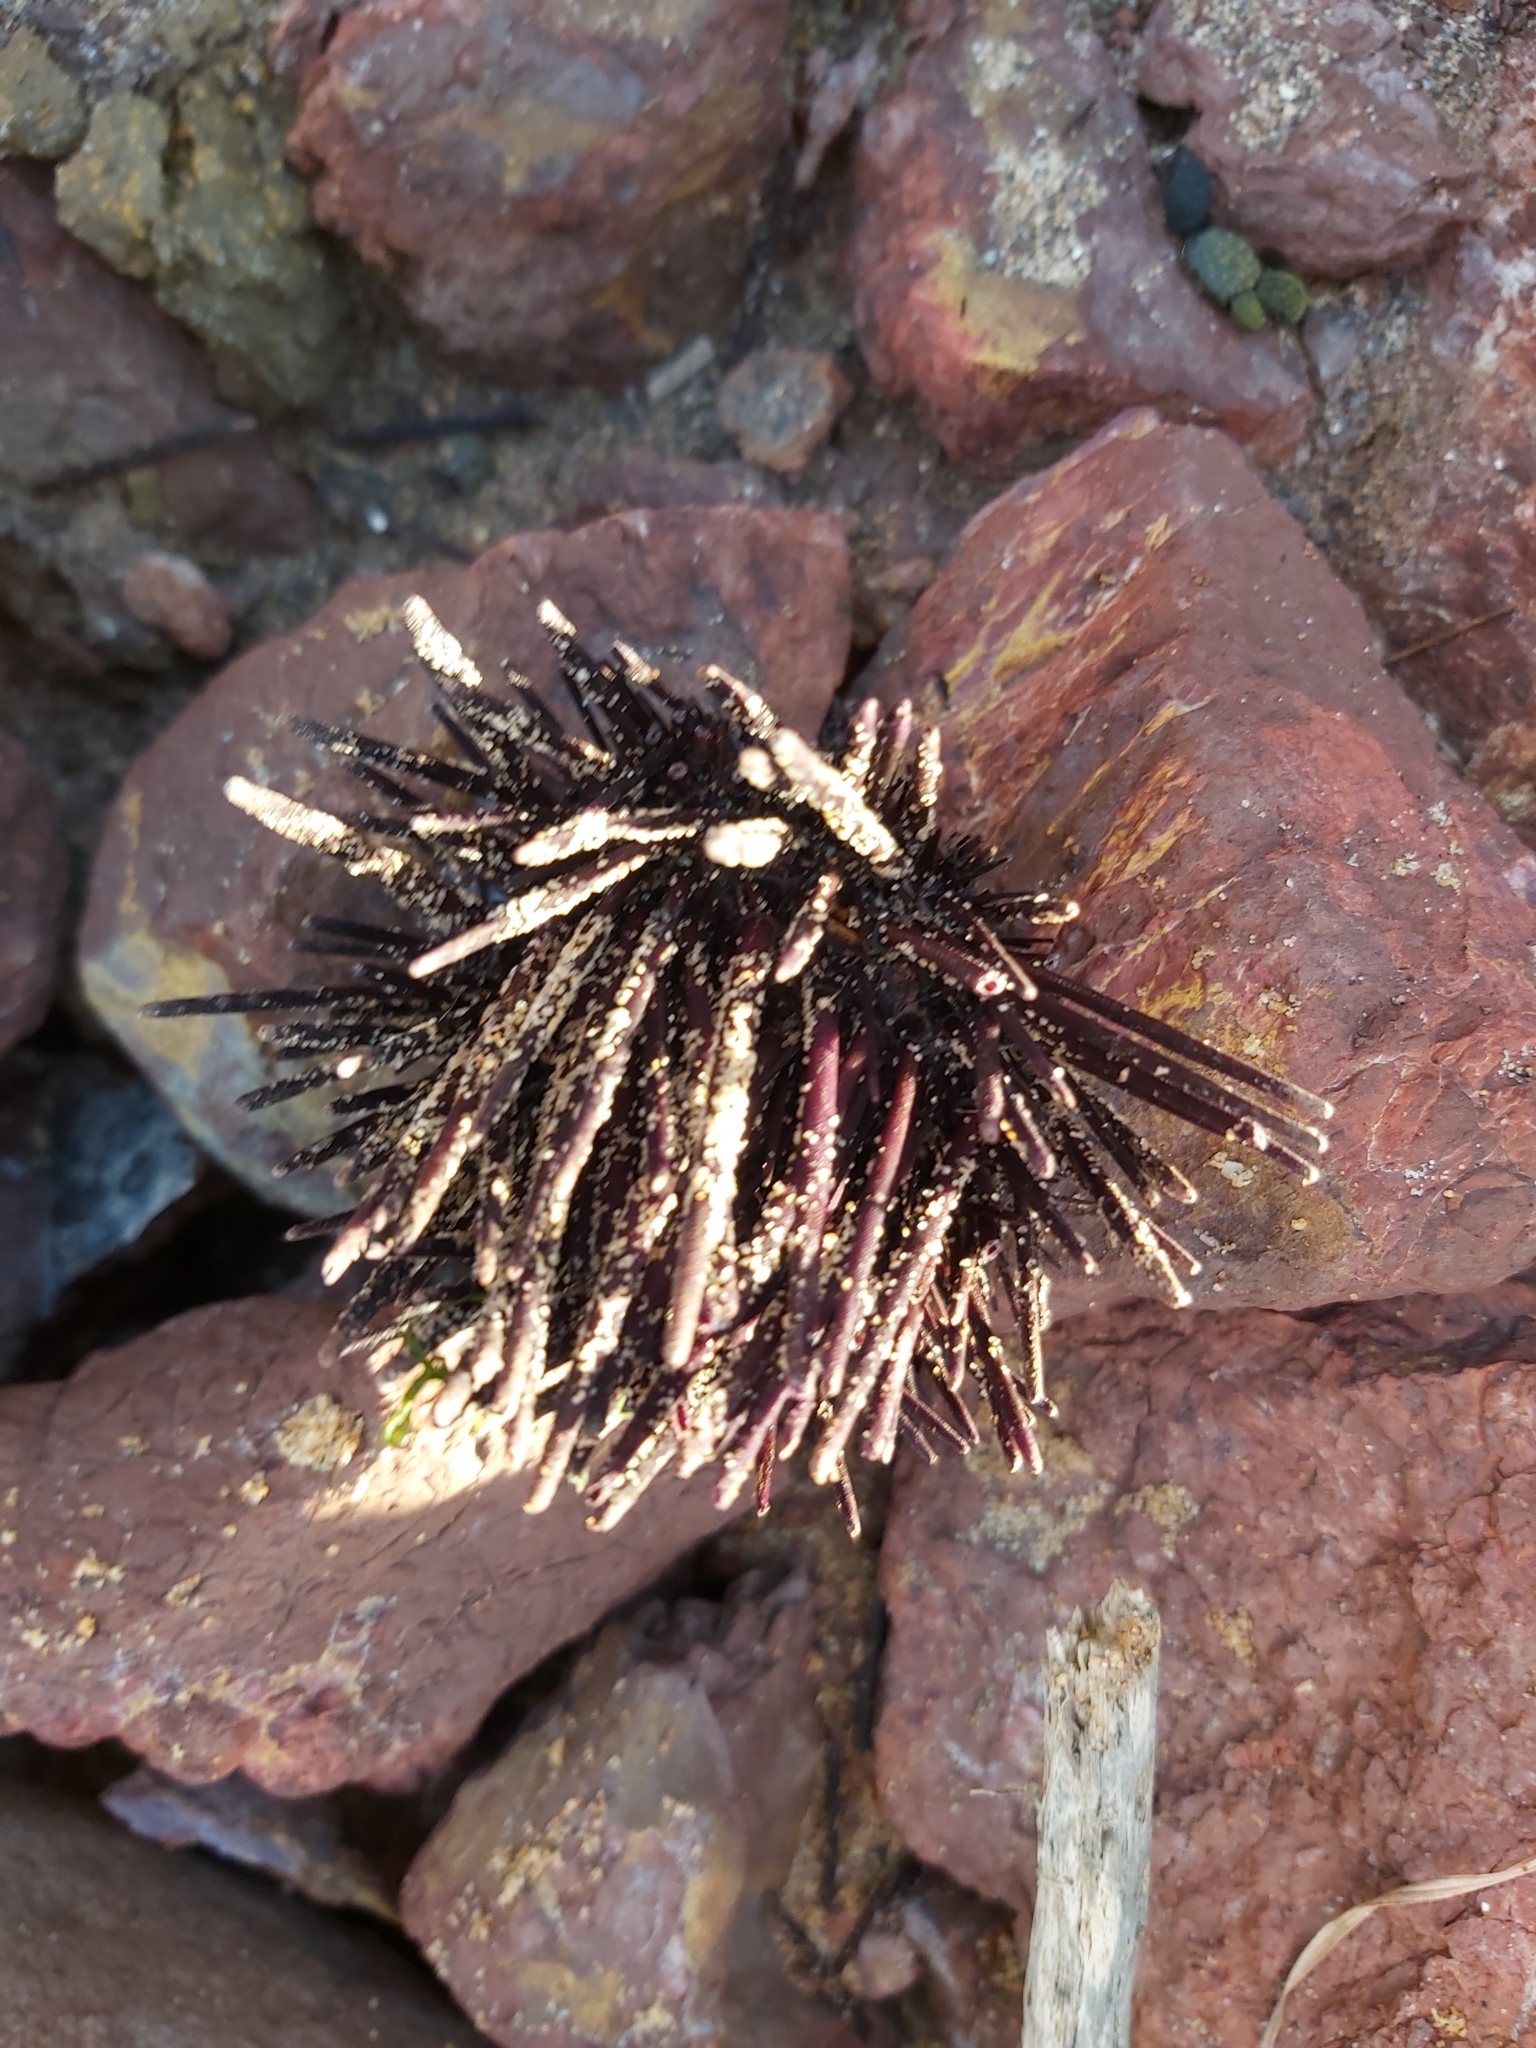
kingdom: Animalia
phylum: Echinodermata
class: Echinoidea
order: Diadematoida
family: Diadematidae
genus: Centrostephanus
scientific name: Centrostephanus rodgersii
